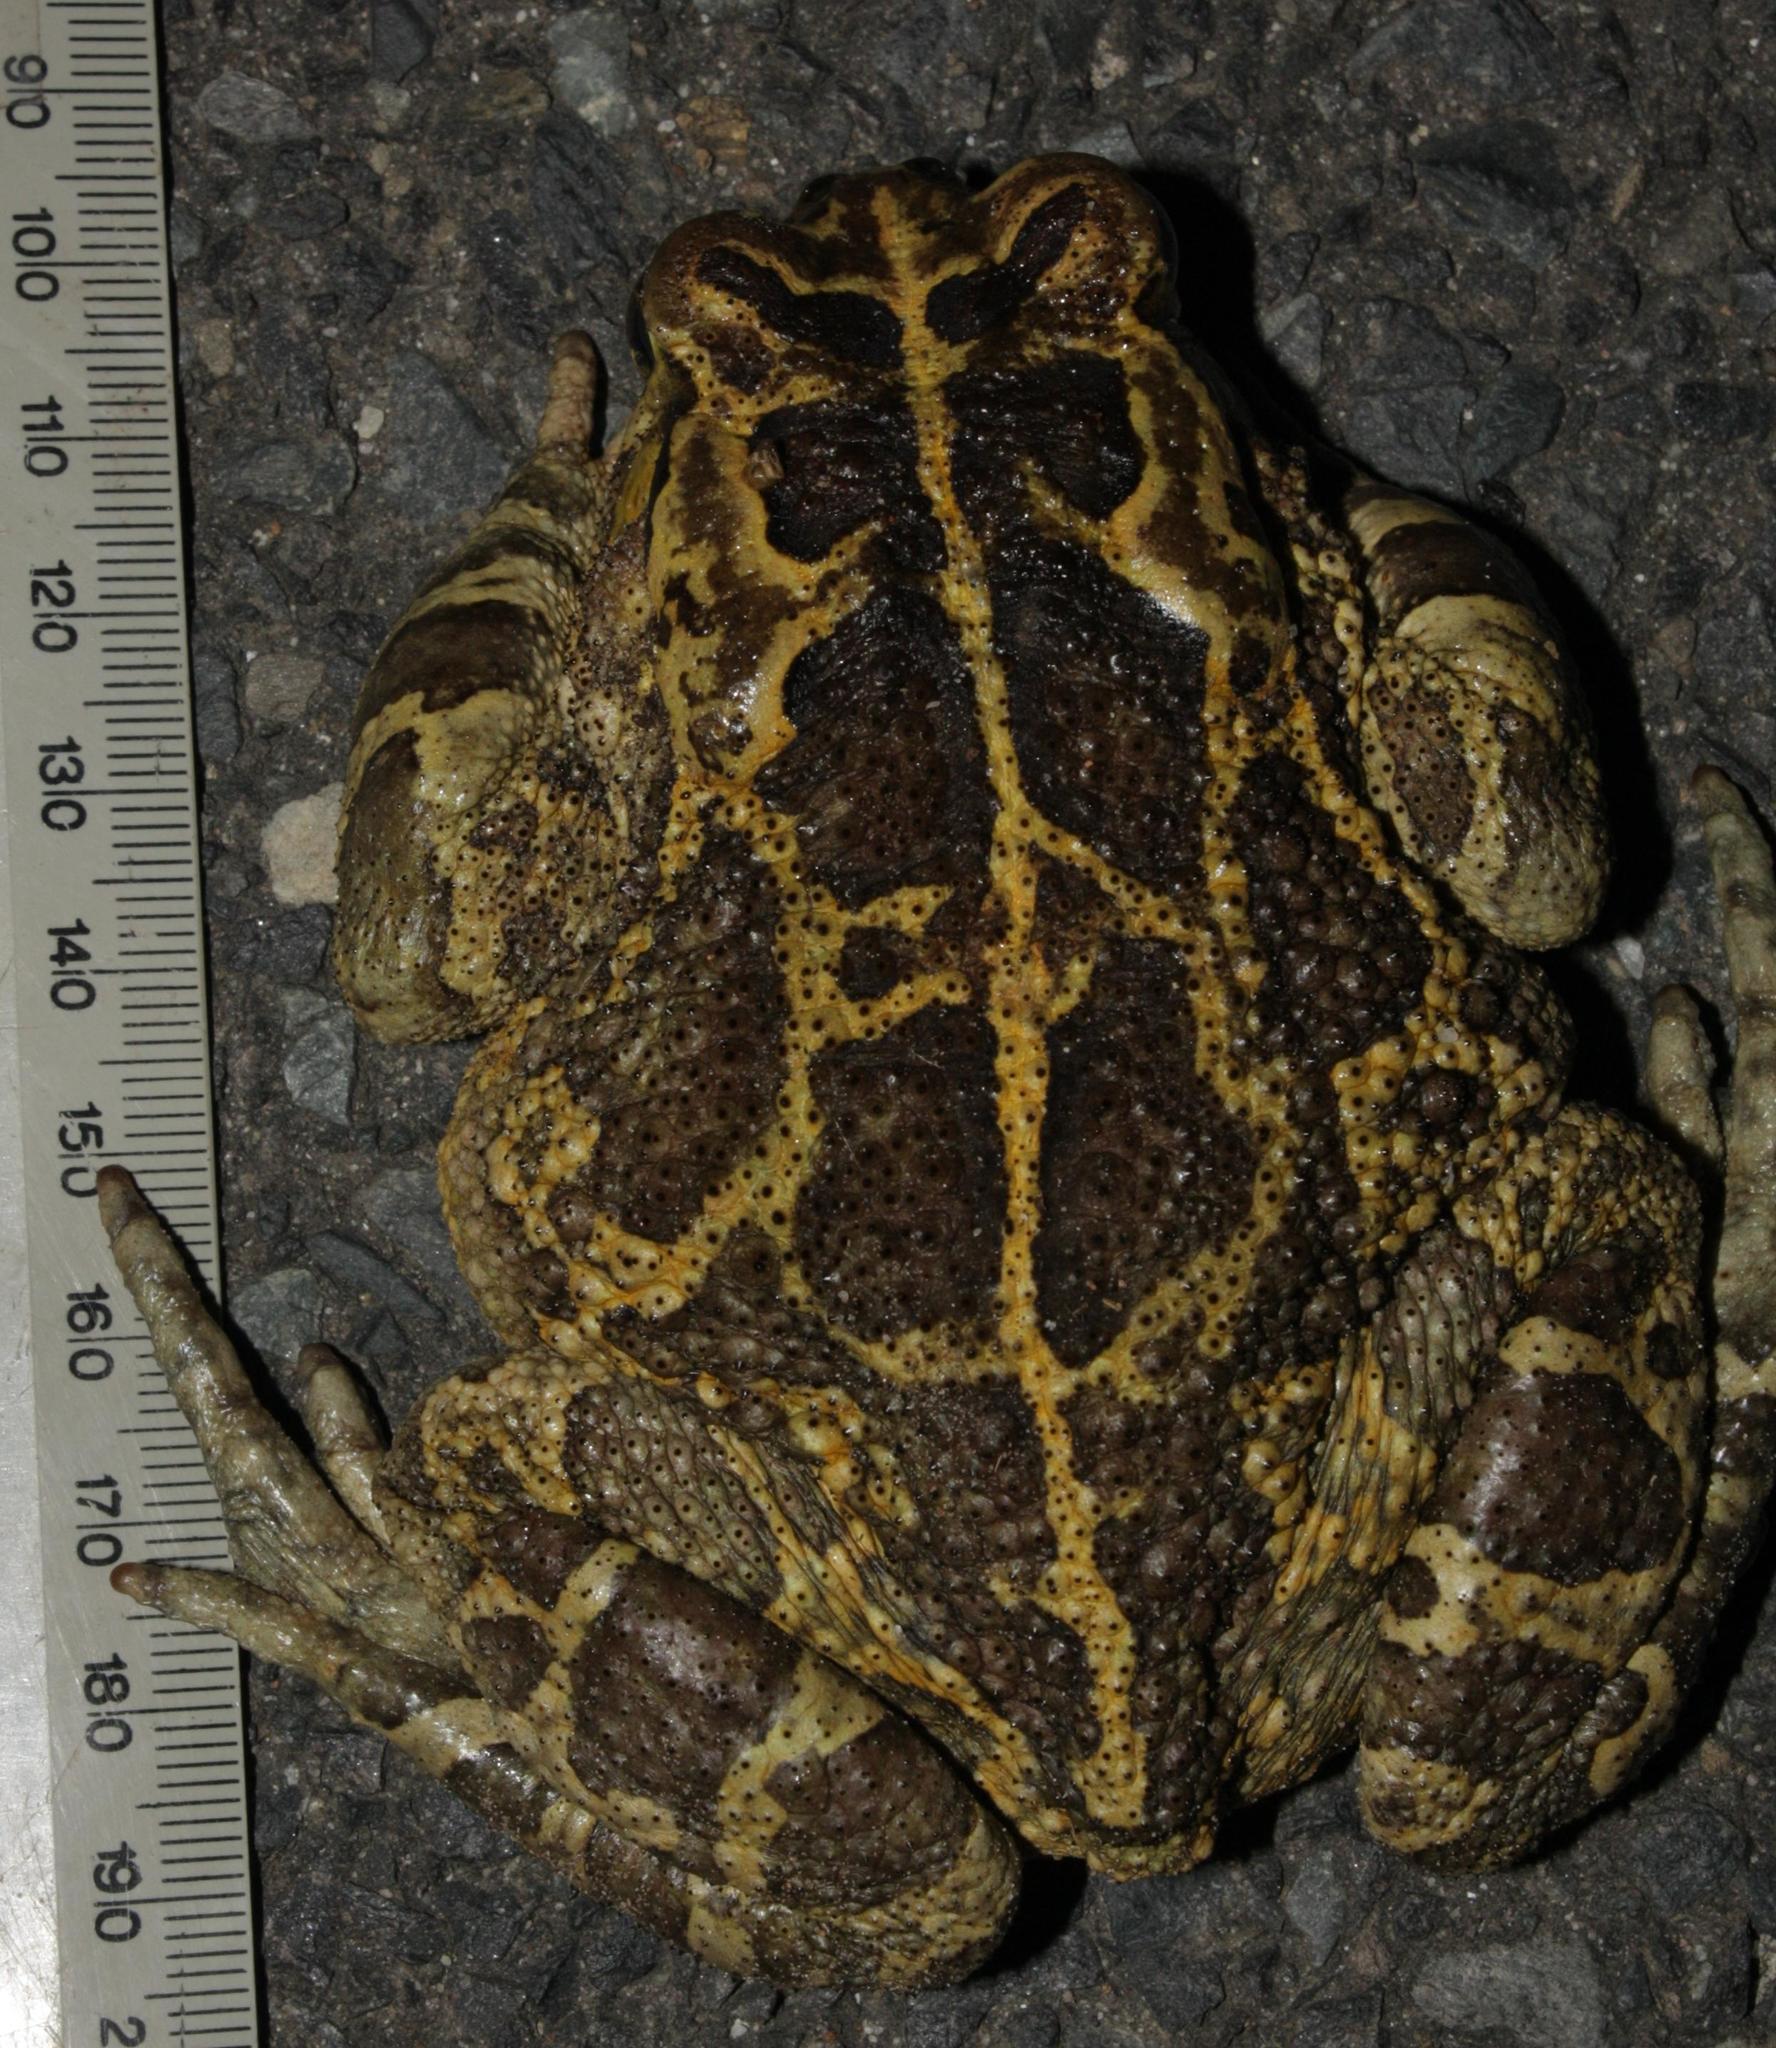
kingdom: Animalia
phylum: Chordata
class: Amphibia
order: Anura
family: Bufonidae
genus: Sclerophrys
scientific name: Sclerophrys pantherina
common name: Panther toad
